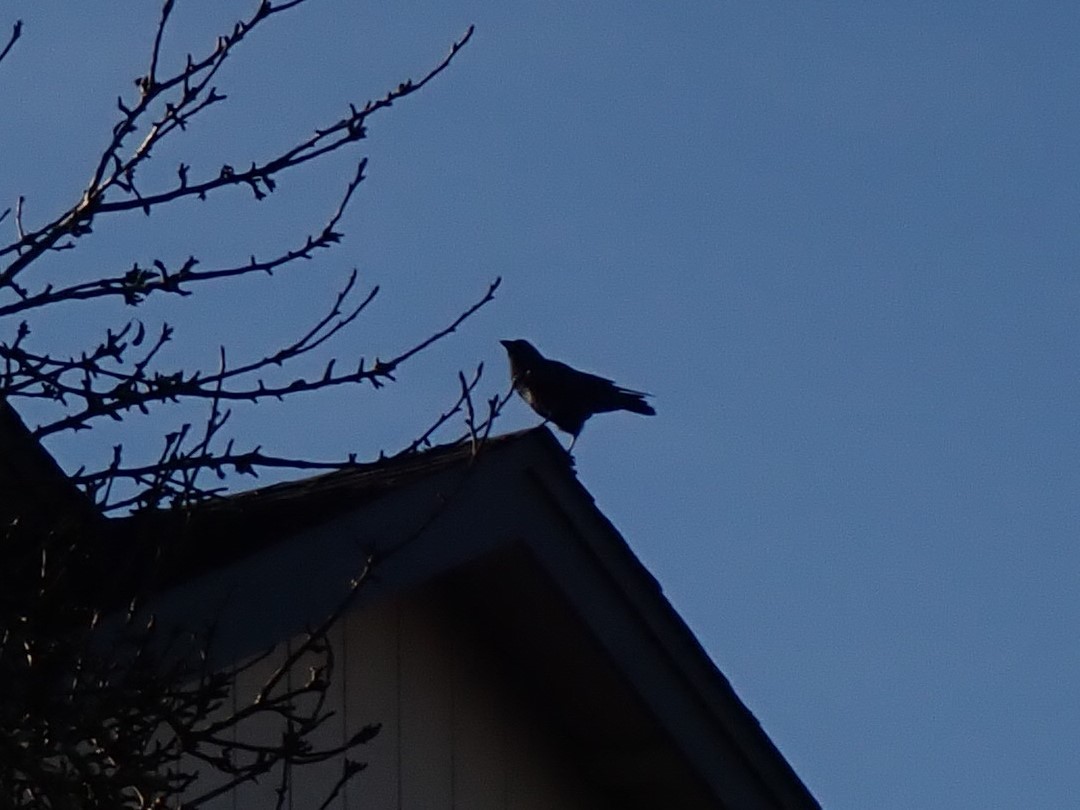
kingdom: Animalia
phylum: Chordata
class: Aves
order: Passeriformes
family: Corvidae
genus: Corvus
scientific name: Corvus brachyrhynchos
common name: American crow
